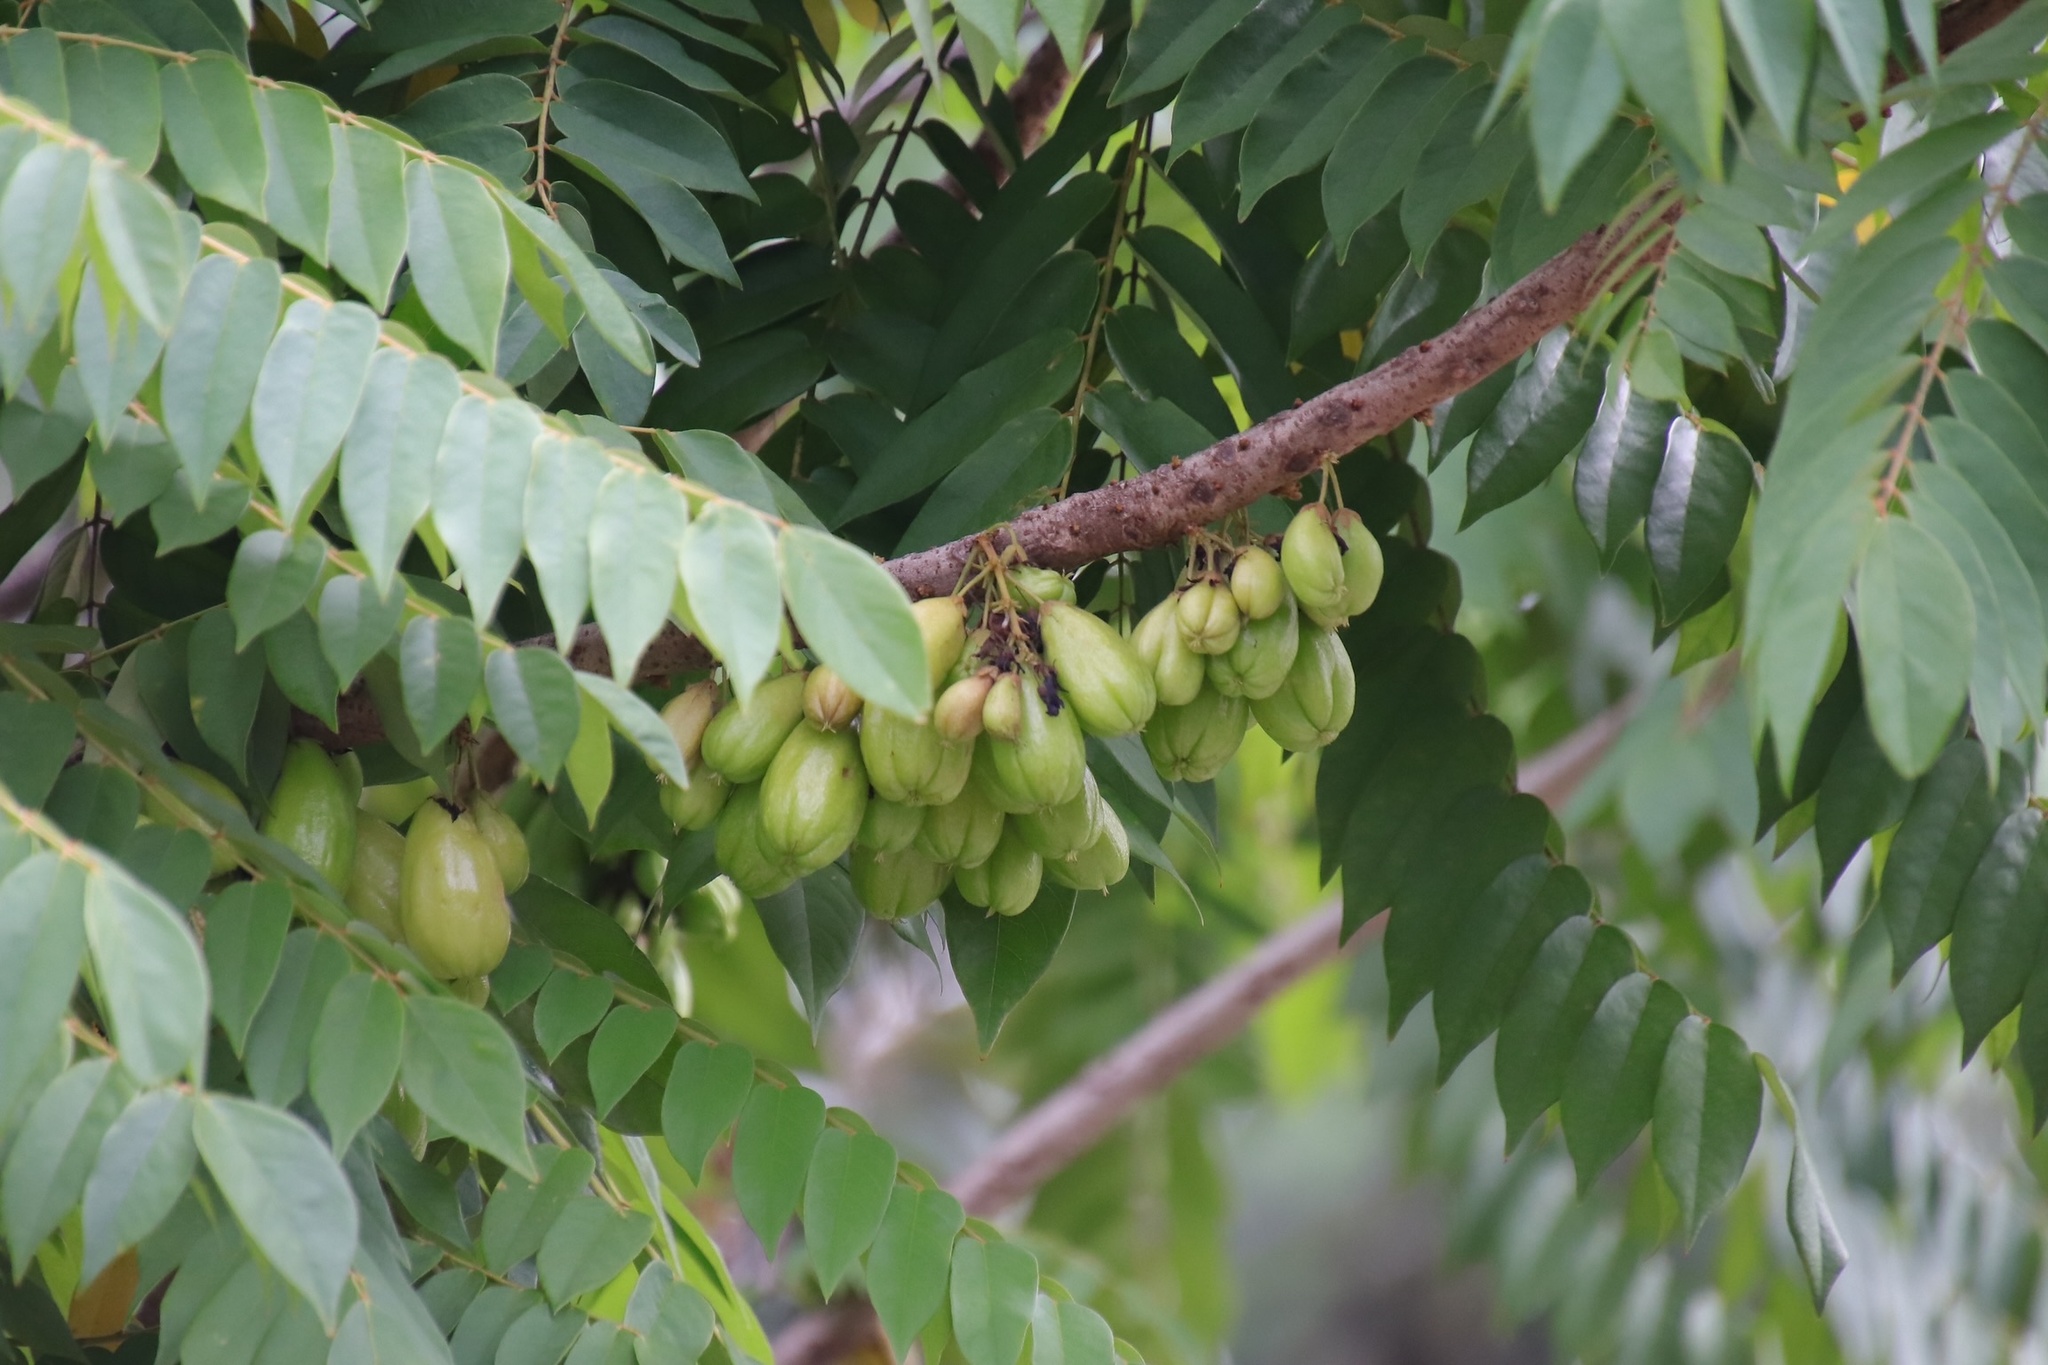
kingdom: Plantae
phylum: Tracheophyta
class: Magnoliopsida
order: Oxalidales
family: Oxalidaceae
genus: Averrhoa
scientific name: Averrhoa bilimbi
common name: Bilimbi
